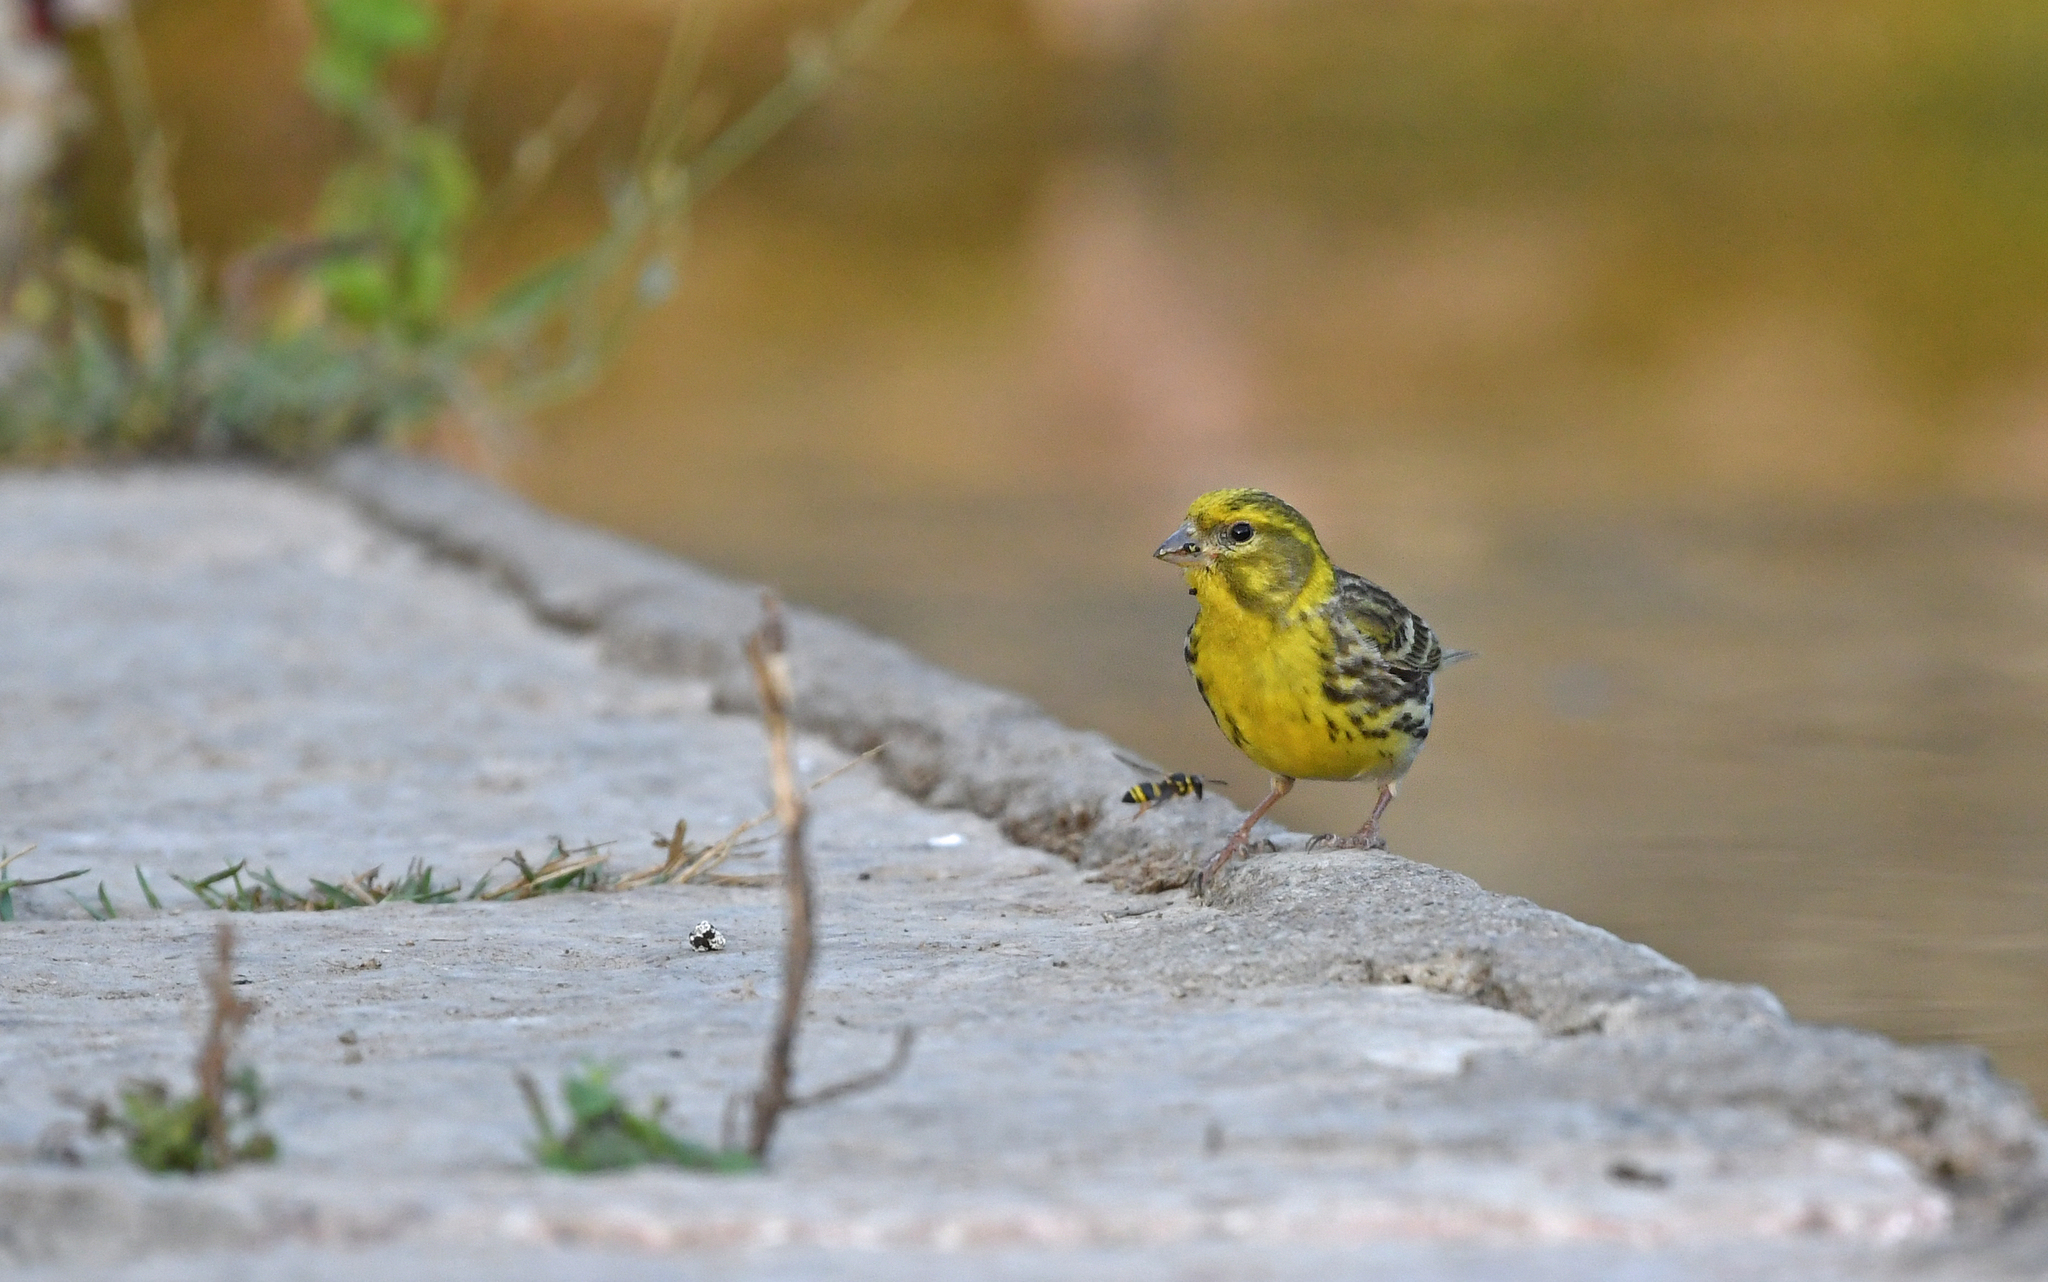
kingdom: Animalia
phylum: Chordata
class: Aves
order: Passeriformes
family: Fringillidae
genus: Serinus
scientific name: Serinus serinus
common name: European serin
